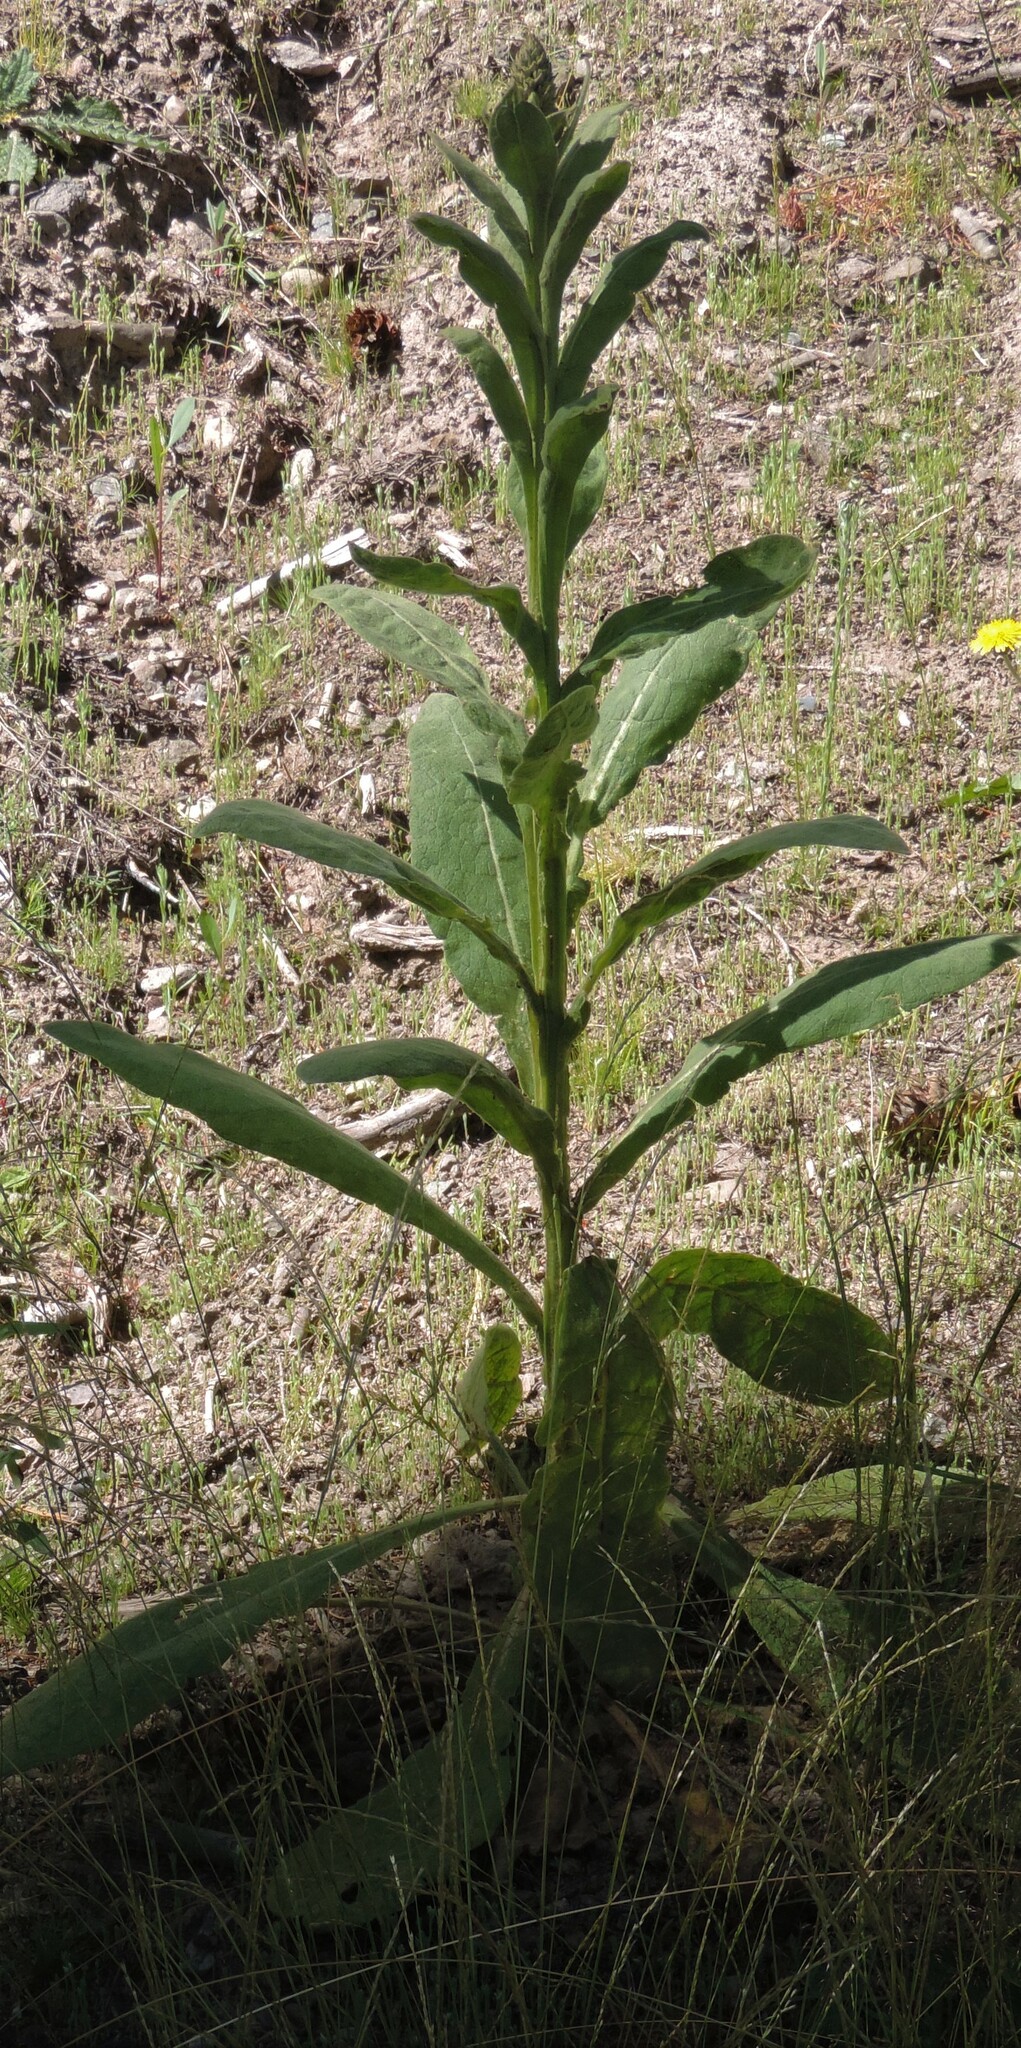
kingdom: Plantae
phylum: Tracheophyta
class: Magnoliopsida
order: Lamiales
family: Scrophulariaceae
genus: Verbascum
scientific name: Verbascum thapsus
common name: Common mullein
